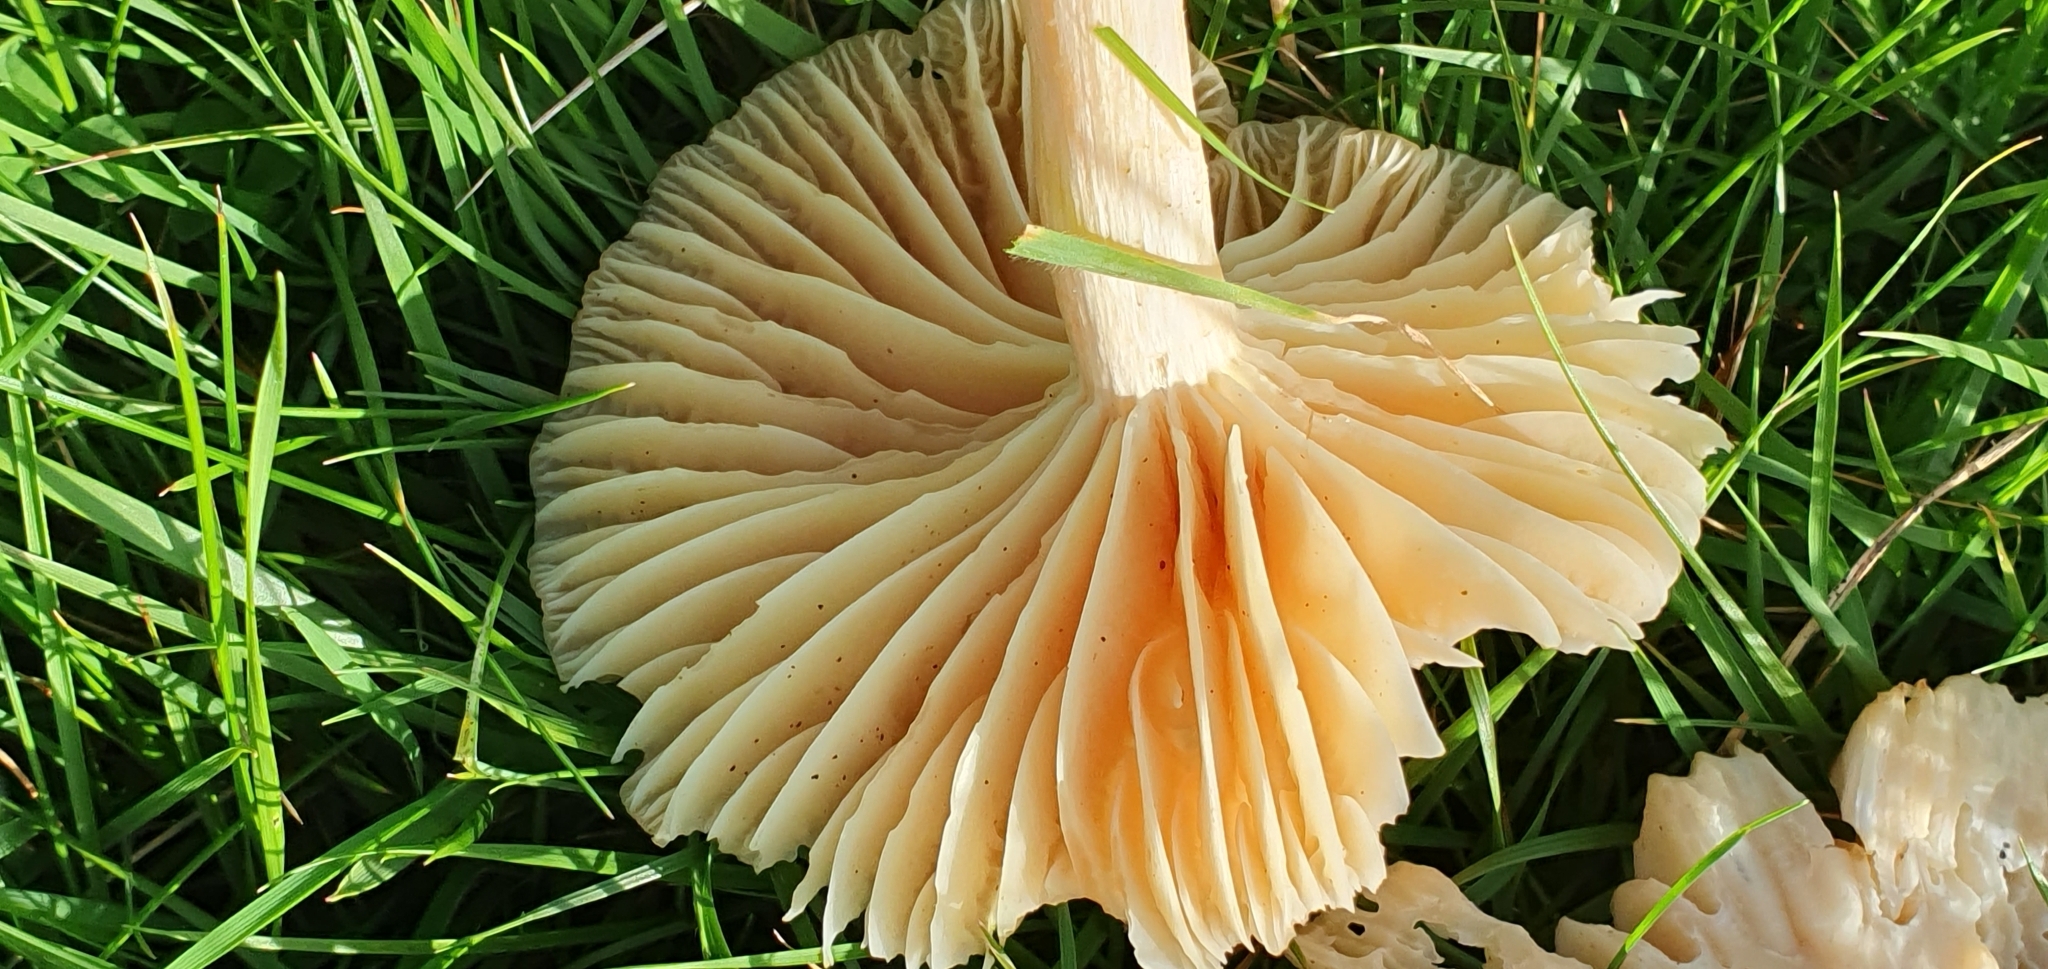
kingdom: Fungi
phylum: Basidiomycota
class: Agaricomycetes
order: Agaricales
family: Hygrophoraceae
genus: Cuphophyllus
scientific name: Cuphophyllus pratensis
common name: Meadow waxcap
